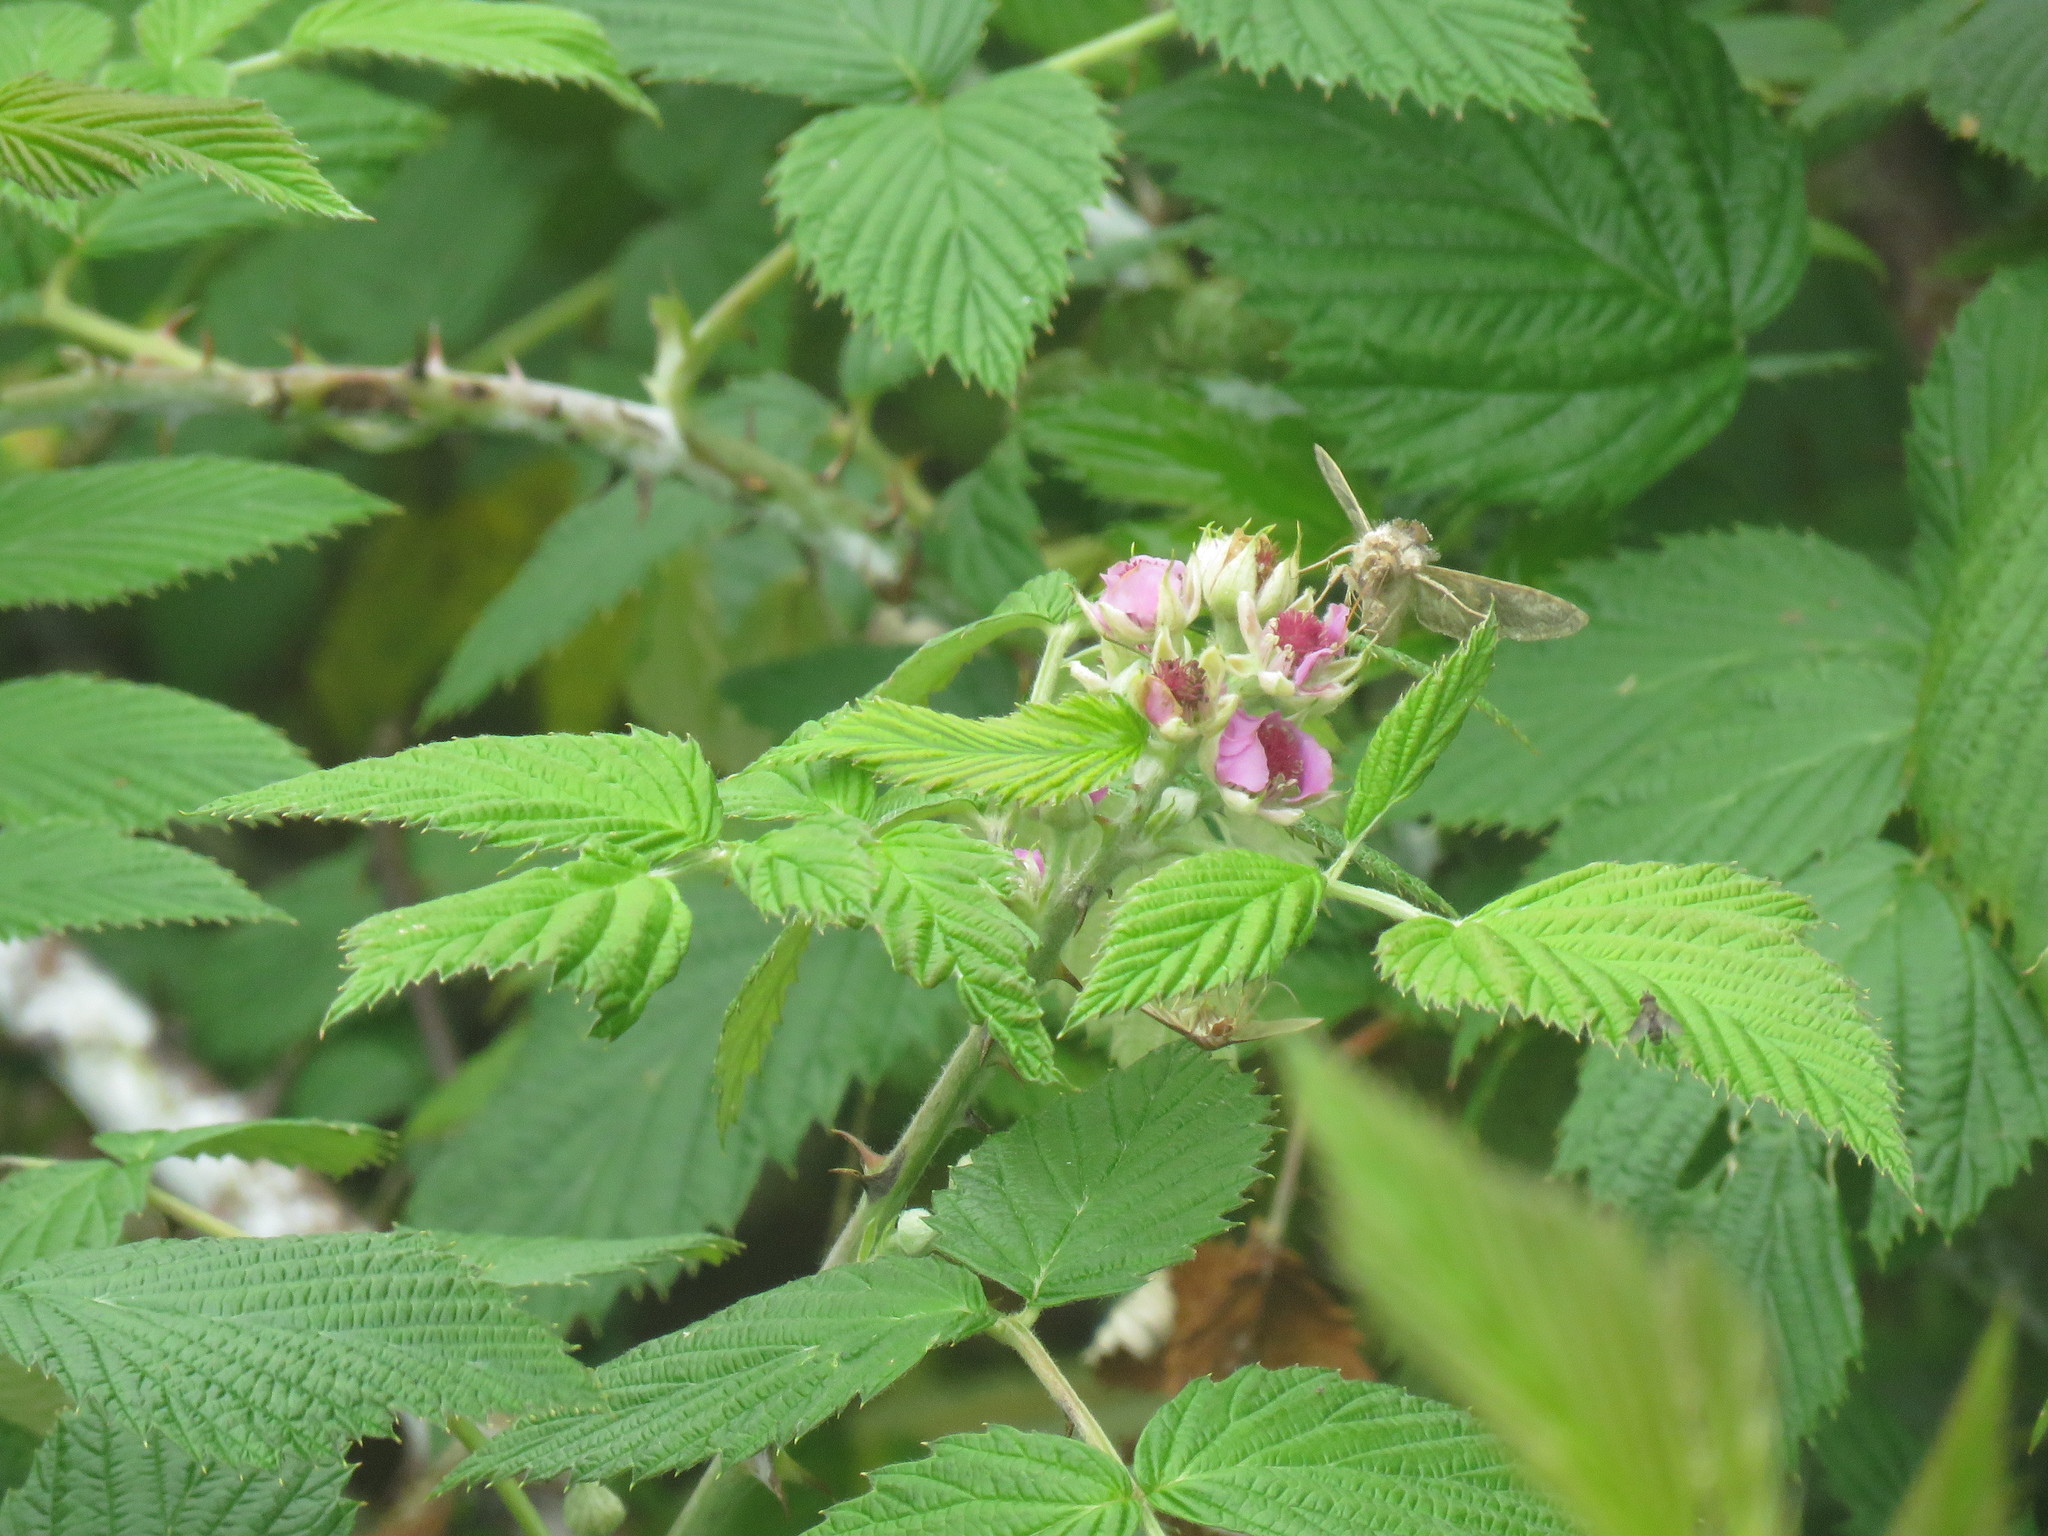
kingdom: Plantae
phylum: Tracheophyta
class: Magnoliopsida
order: Rosales
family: Rosaceae
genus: Rubus
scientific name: Rubus niveus
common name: Snowpeaks raspberry
